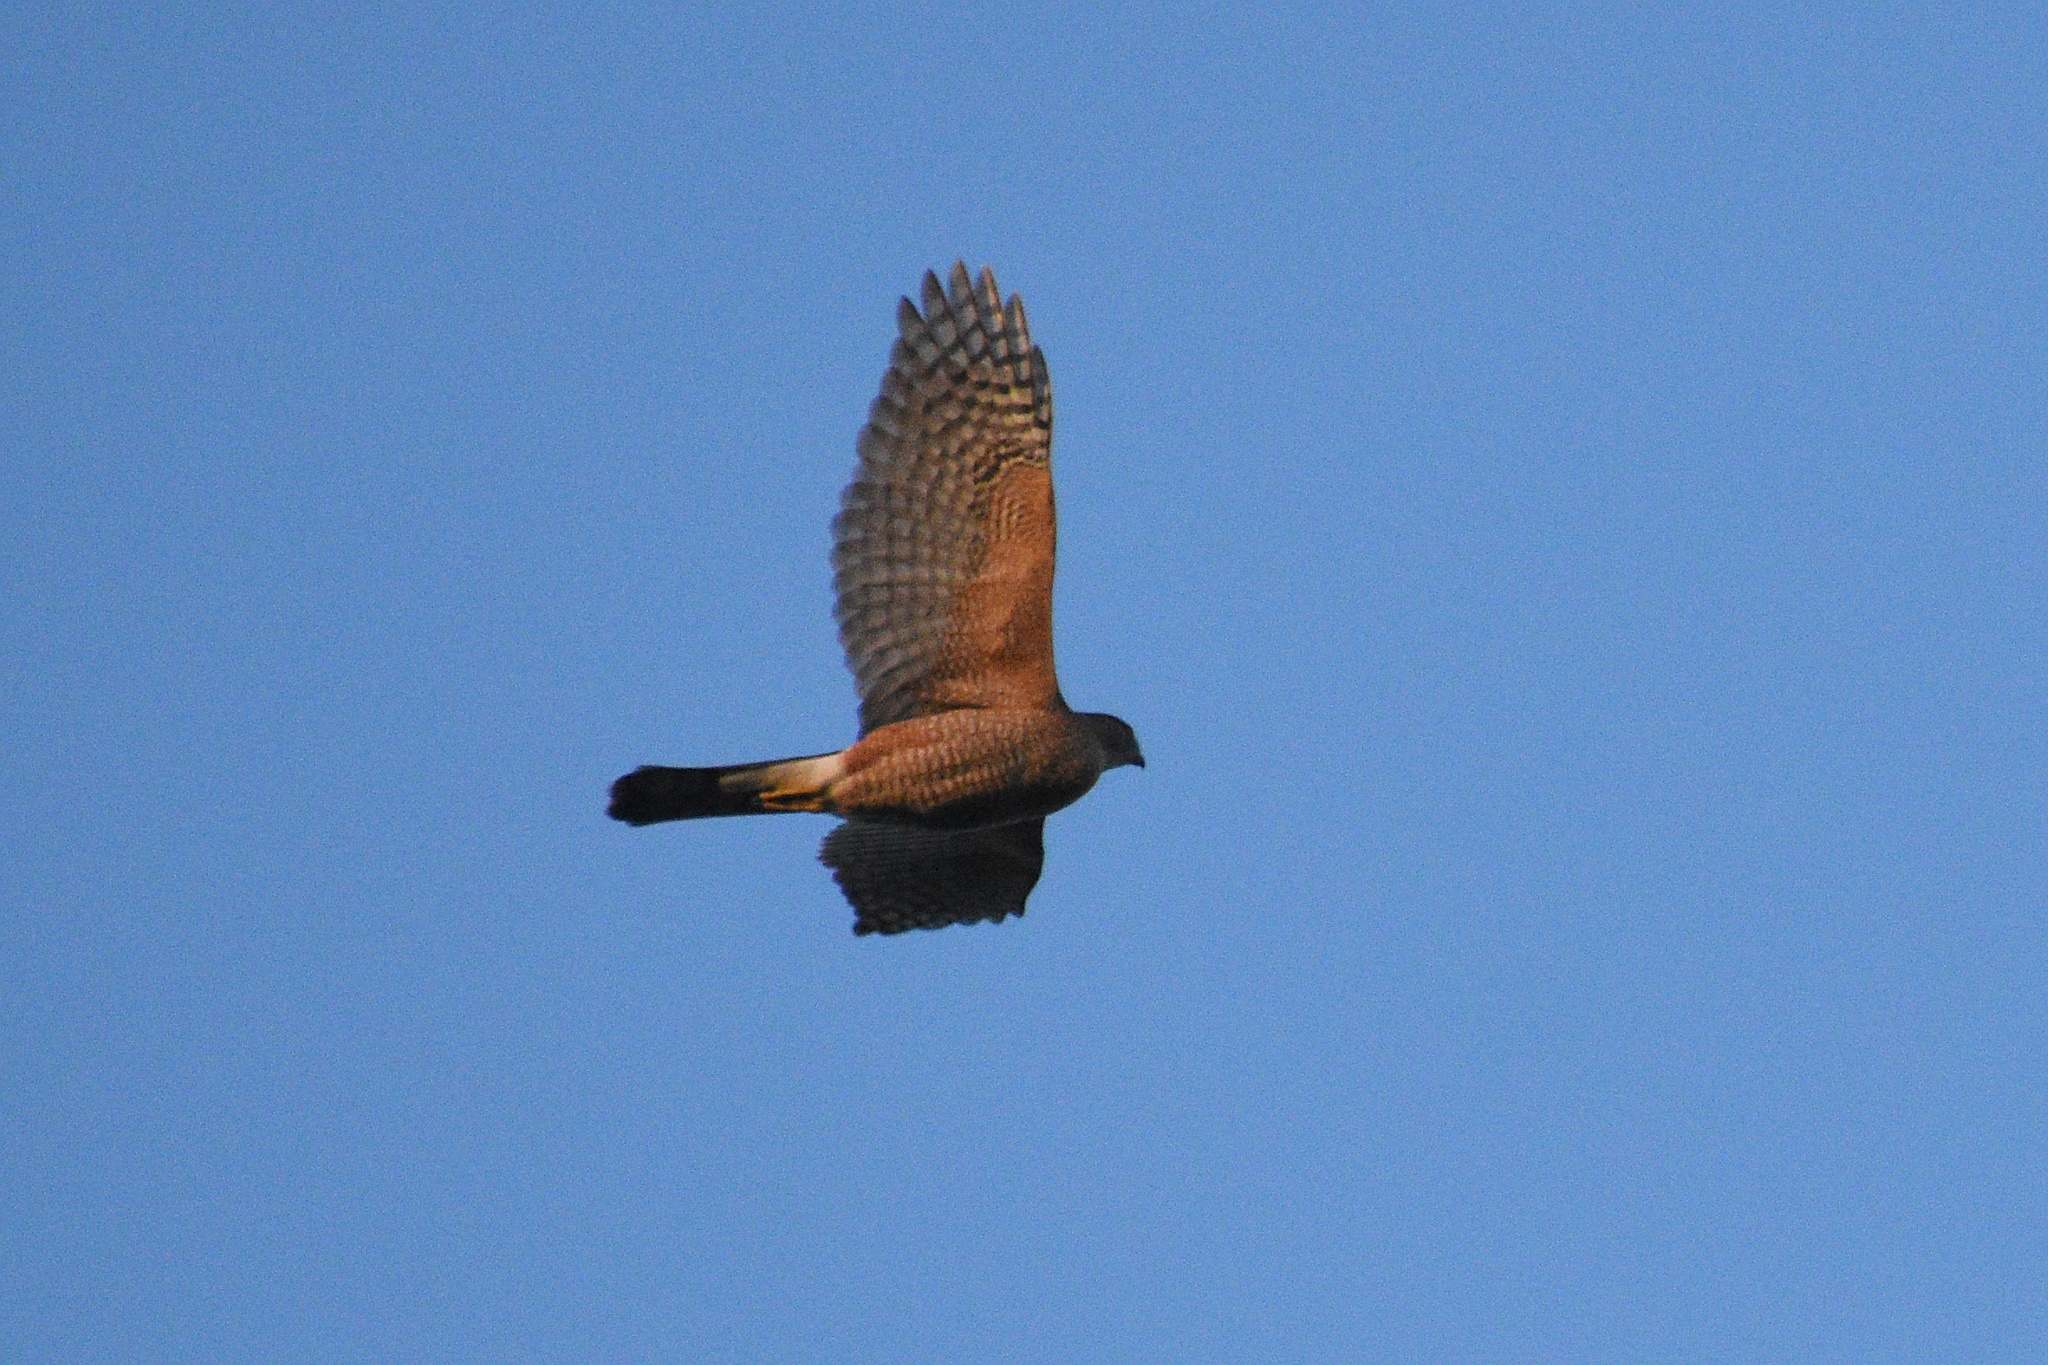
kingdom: Animalia
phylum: Chordata
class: Aves
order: Accipitriformes
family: Accipitridae
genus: Accipiter
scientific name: Accipiter cooperii
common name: Cooper's hawk
